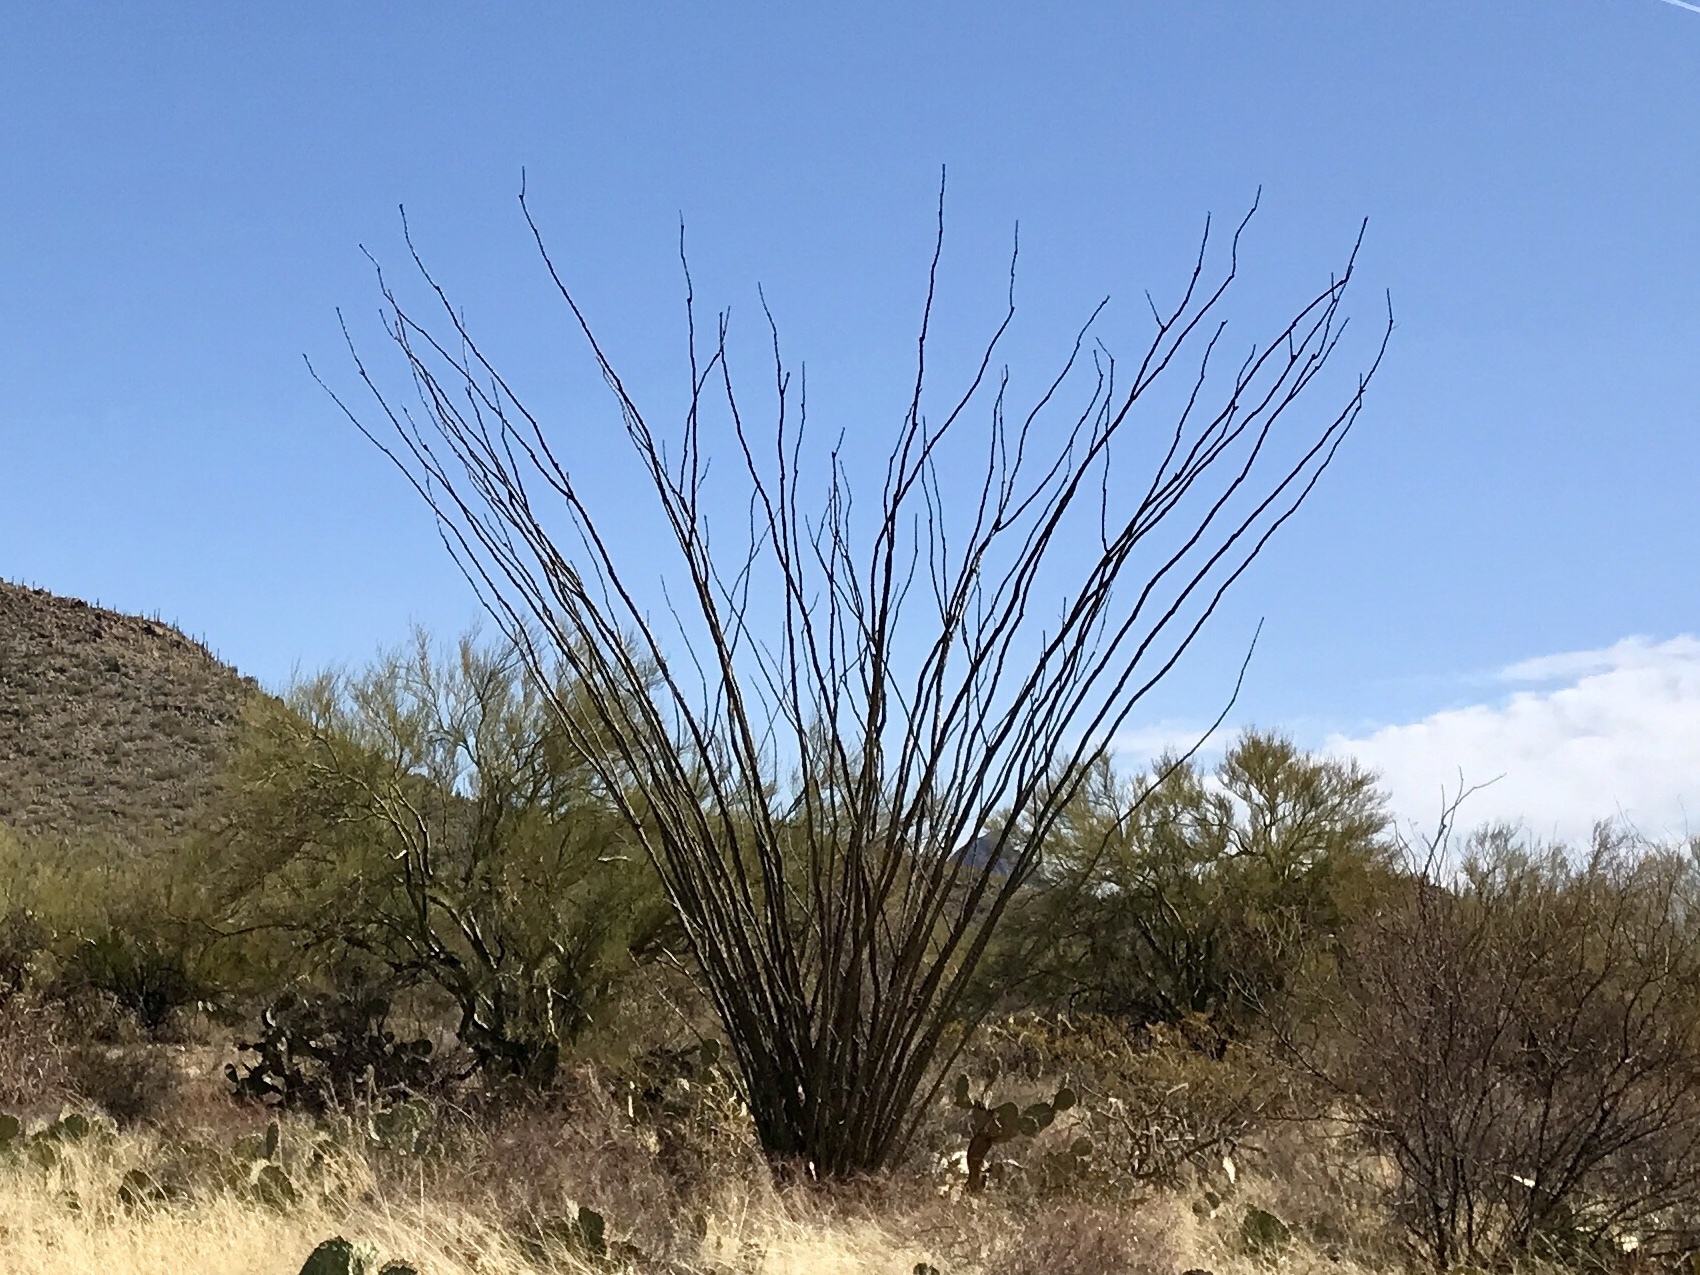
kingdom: Plantae
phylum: Tracheophyta
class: Magnoliopsida
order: Ericales
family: Fouquieriaceae
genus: Fouquieria
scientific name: Fouquieria splendens
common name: Vine-cactus
